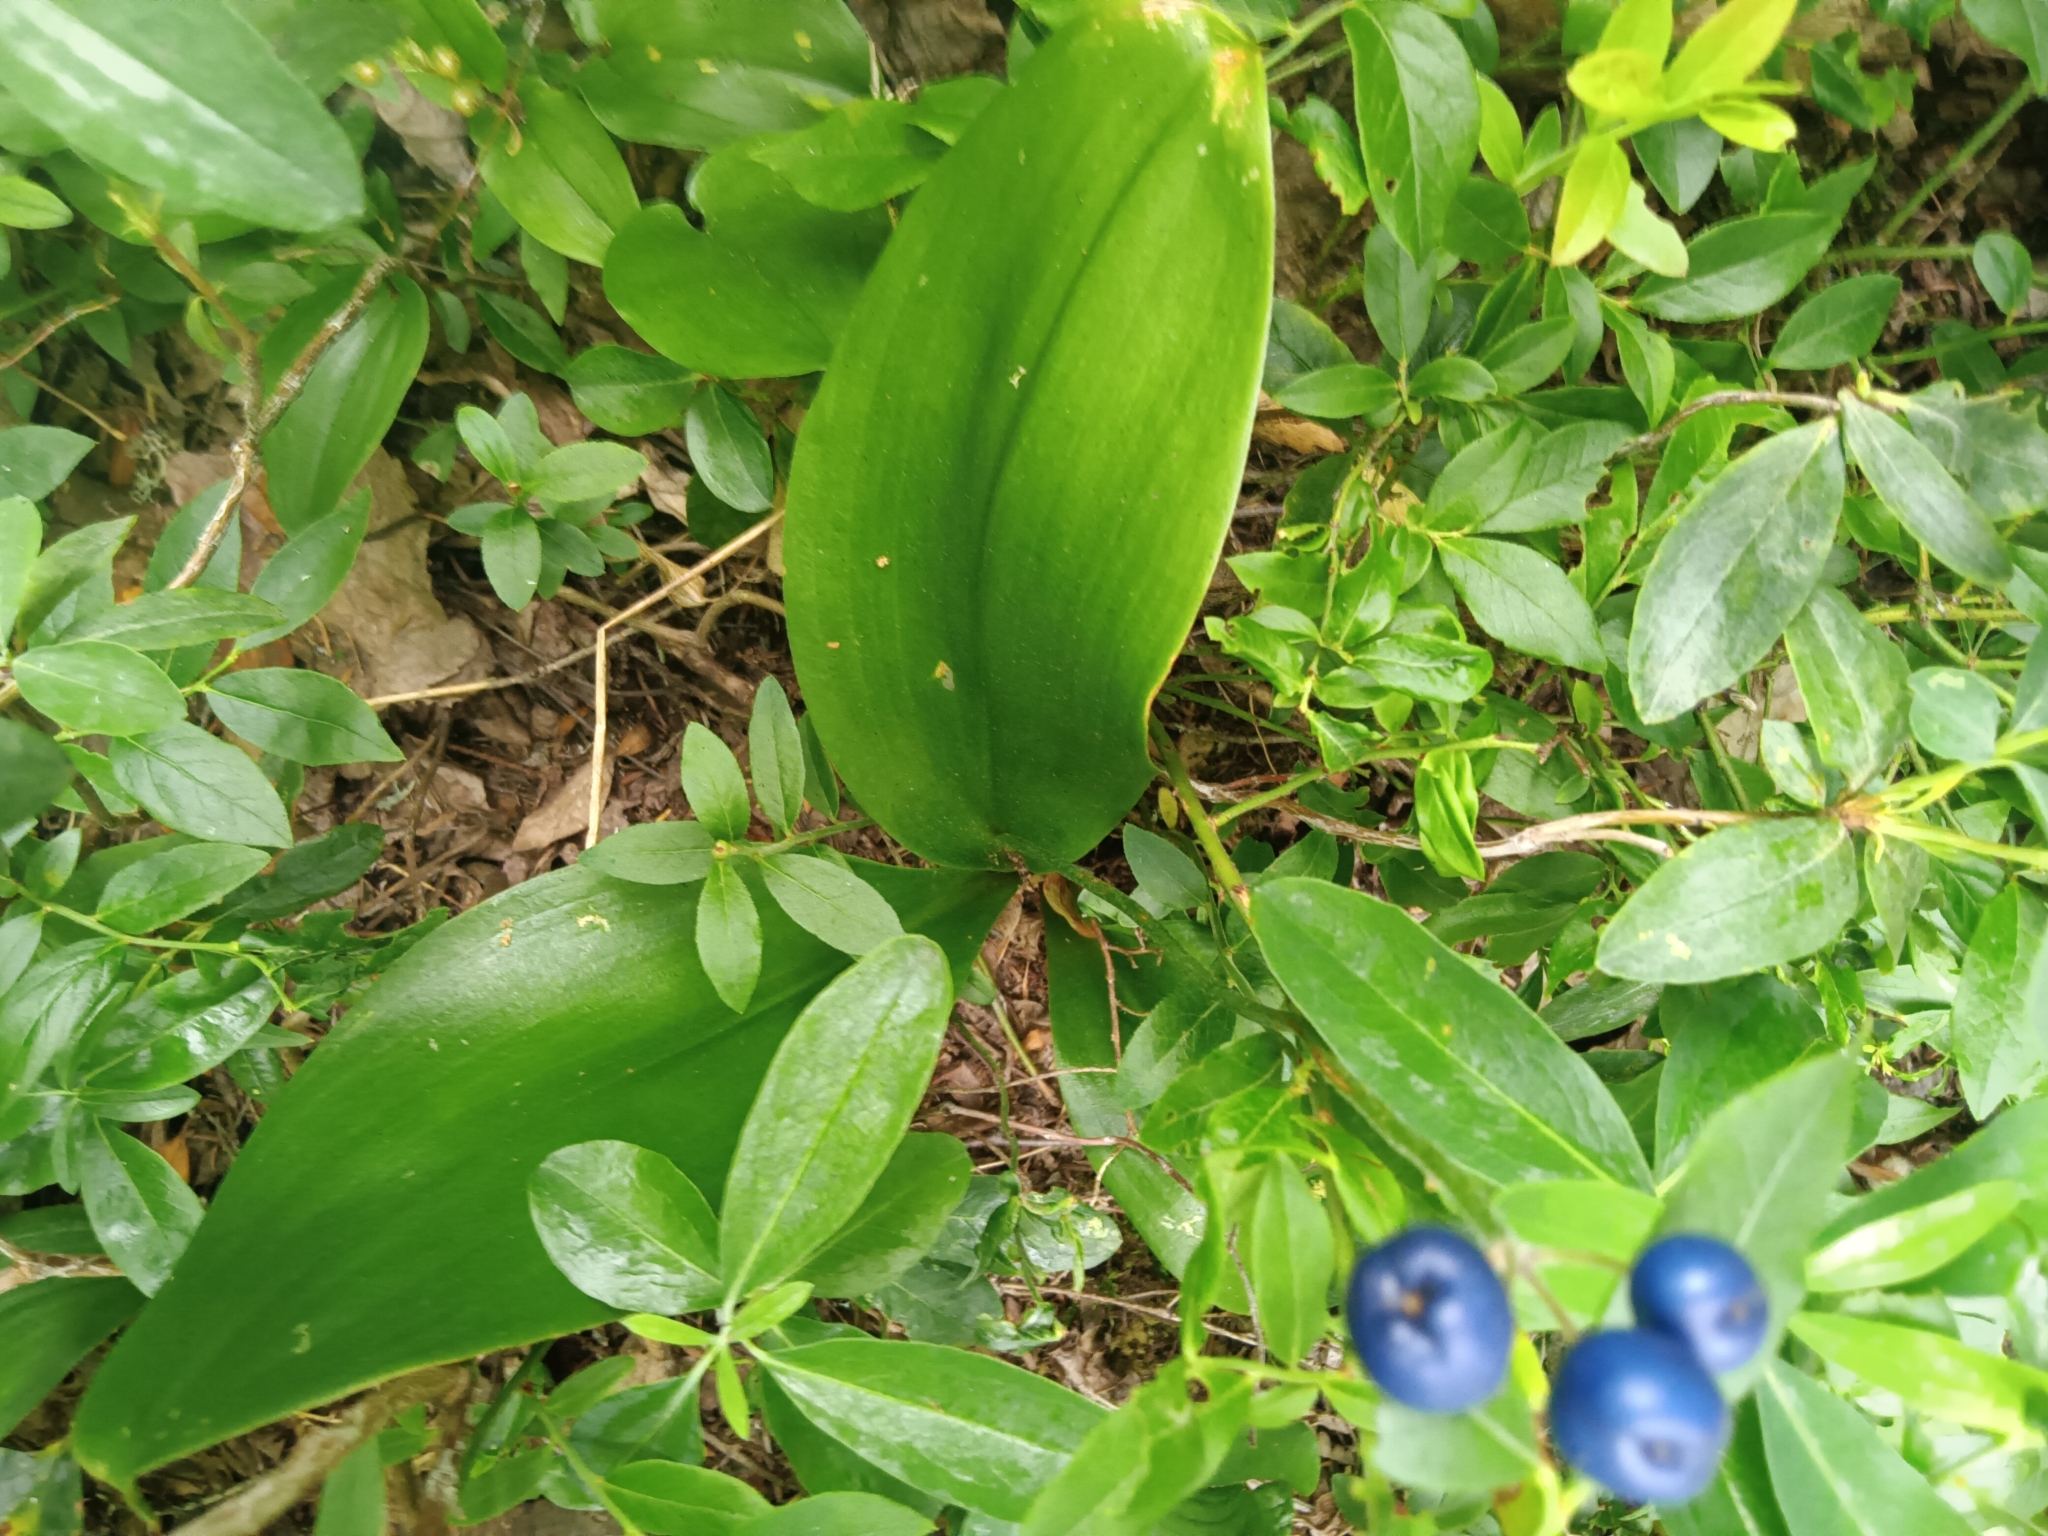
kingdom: Plantae
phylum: Tracheophyta
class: Liliopsida
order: Liliales
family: Liliaceae
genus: Clintonia
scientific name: Clintonia borealis
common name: Yellow clintonia
